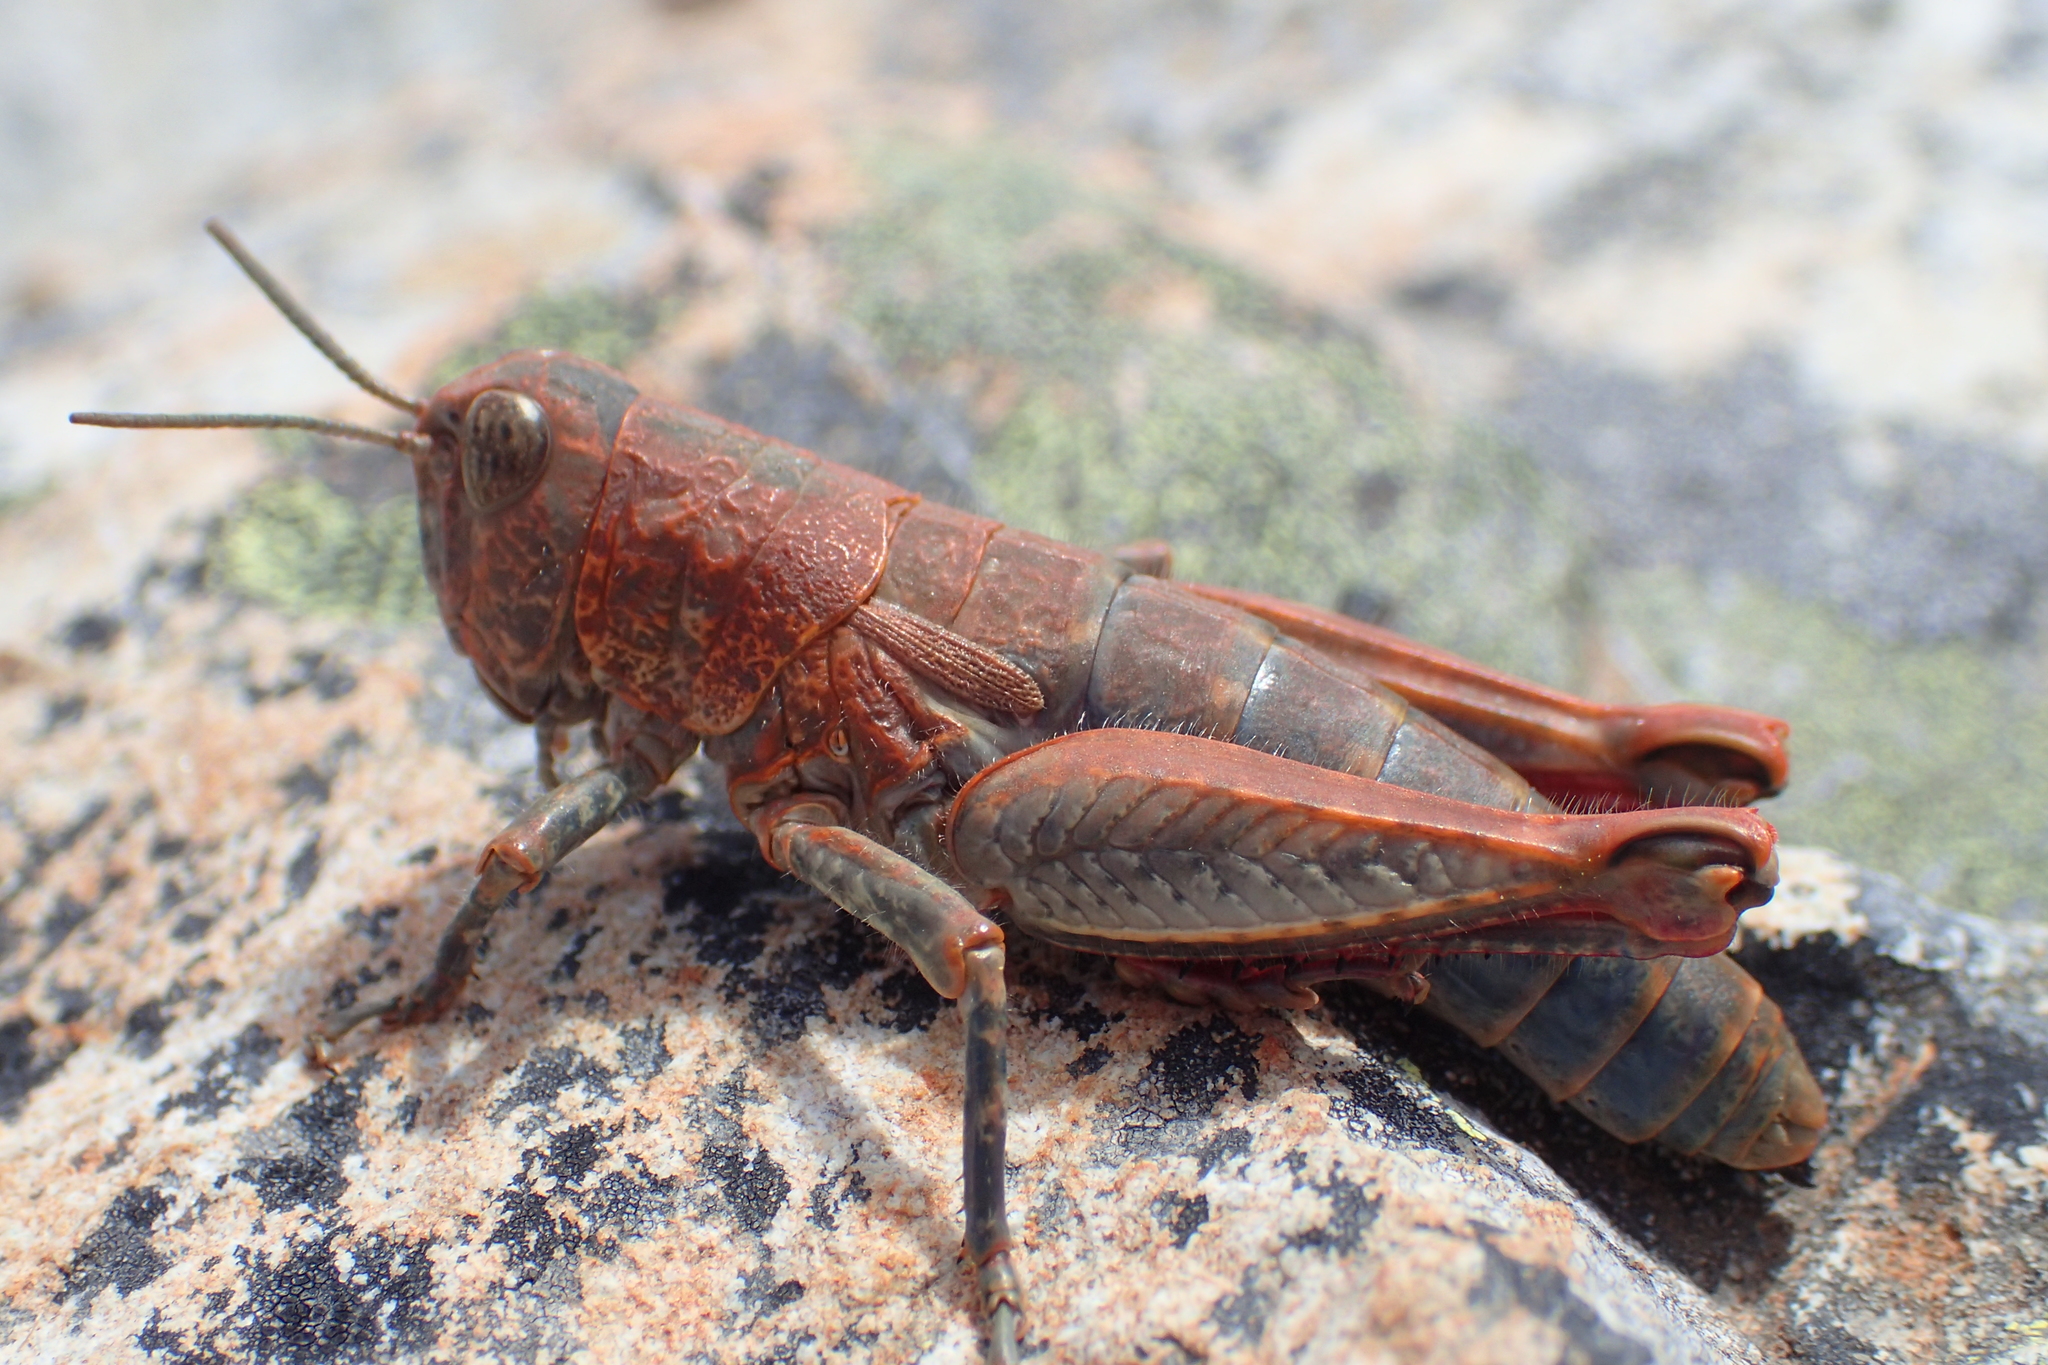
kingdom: Animalia
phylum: Arthropoda
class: Insecta
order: Orthoptera
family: Acrididae
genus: Sigaus
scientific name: Sigaus
